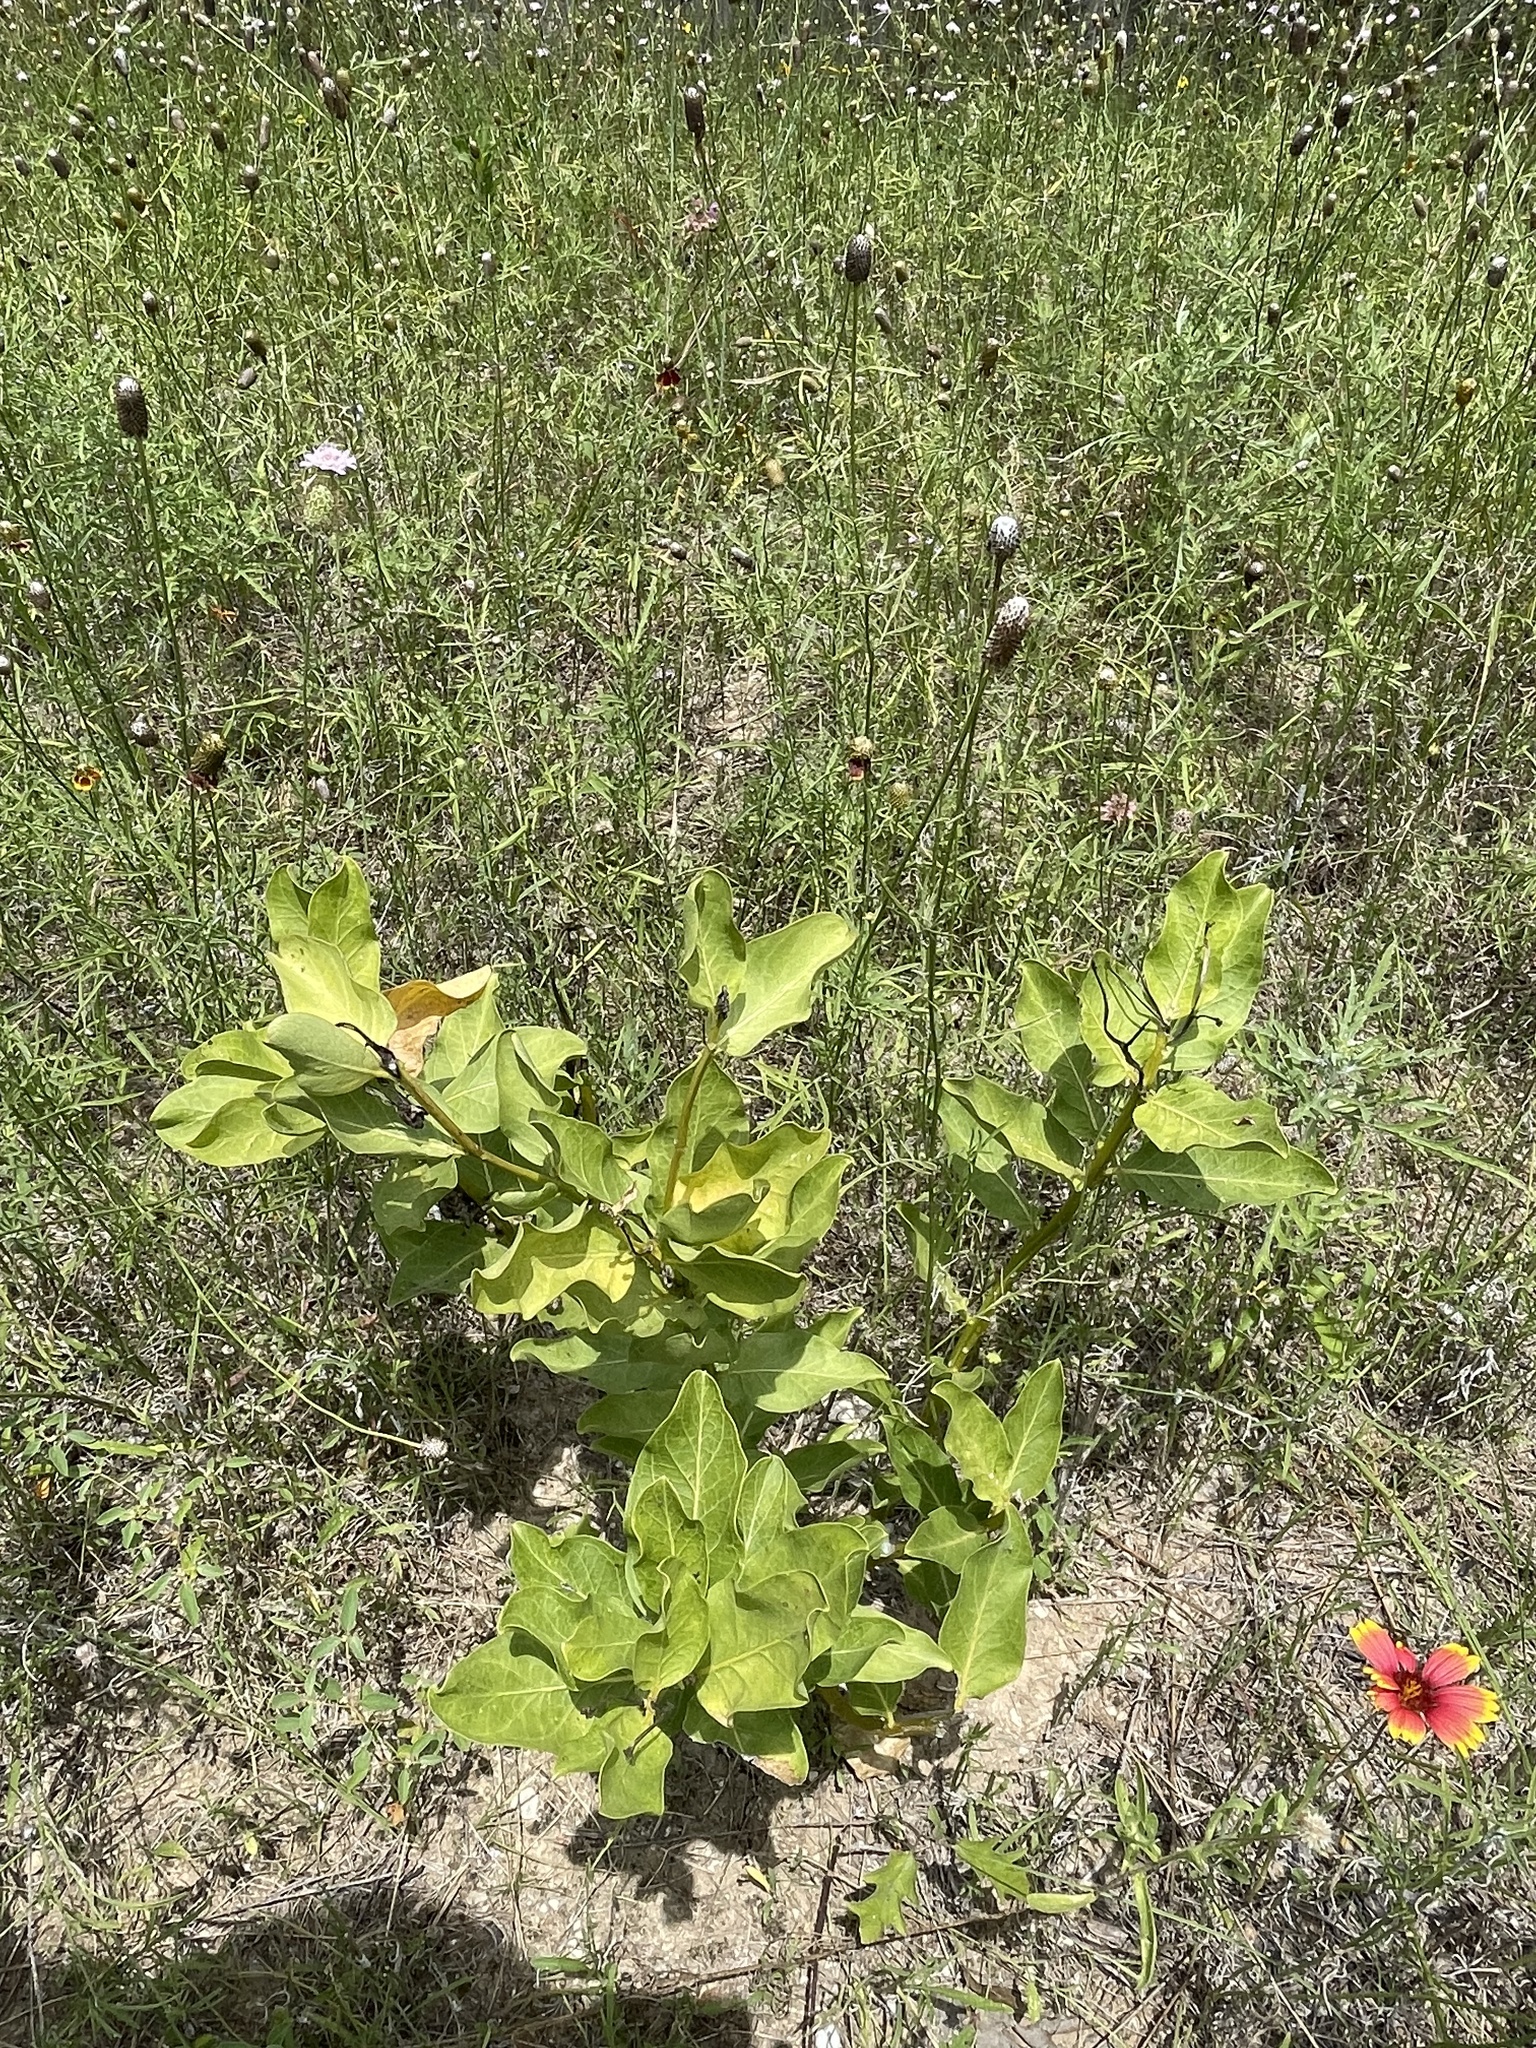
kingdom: Plantae
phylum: Tracheophyta
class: Magnoliopsida
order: Gentianales
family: Apocynaceae
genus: Asclepias
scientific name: Asclepias viridis
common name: Antelope-horns
